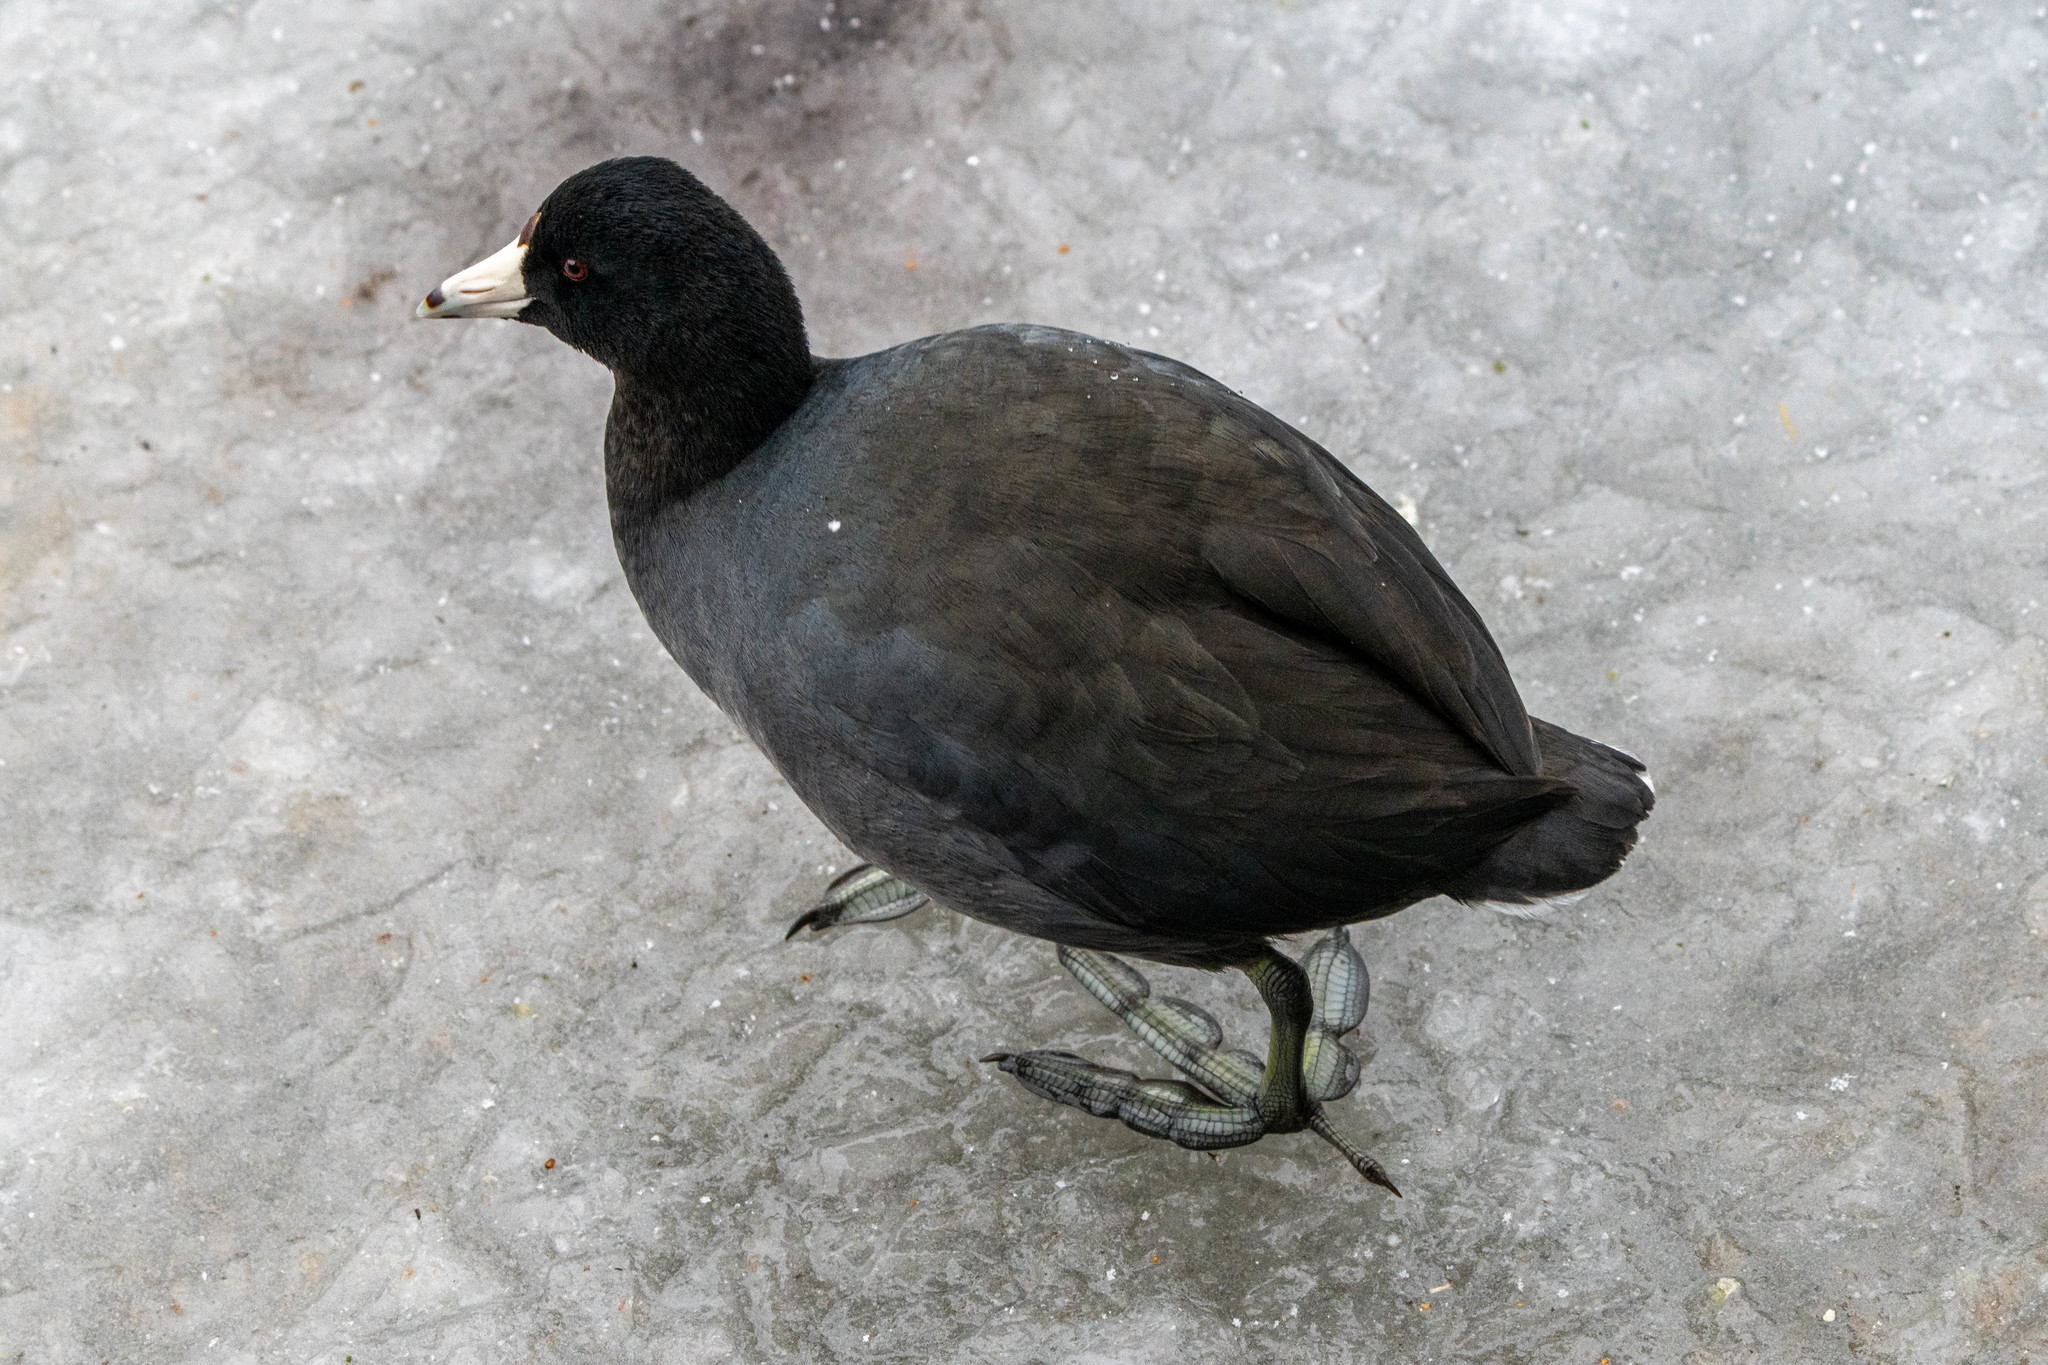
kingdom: Animalia
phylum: Chordata
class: Aves
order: Gruiformes
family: Rallidae
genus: Fulica
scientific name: Fulica americana
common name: American coot
